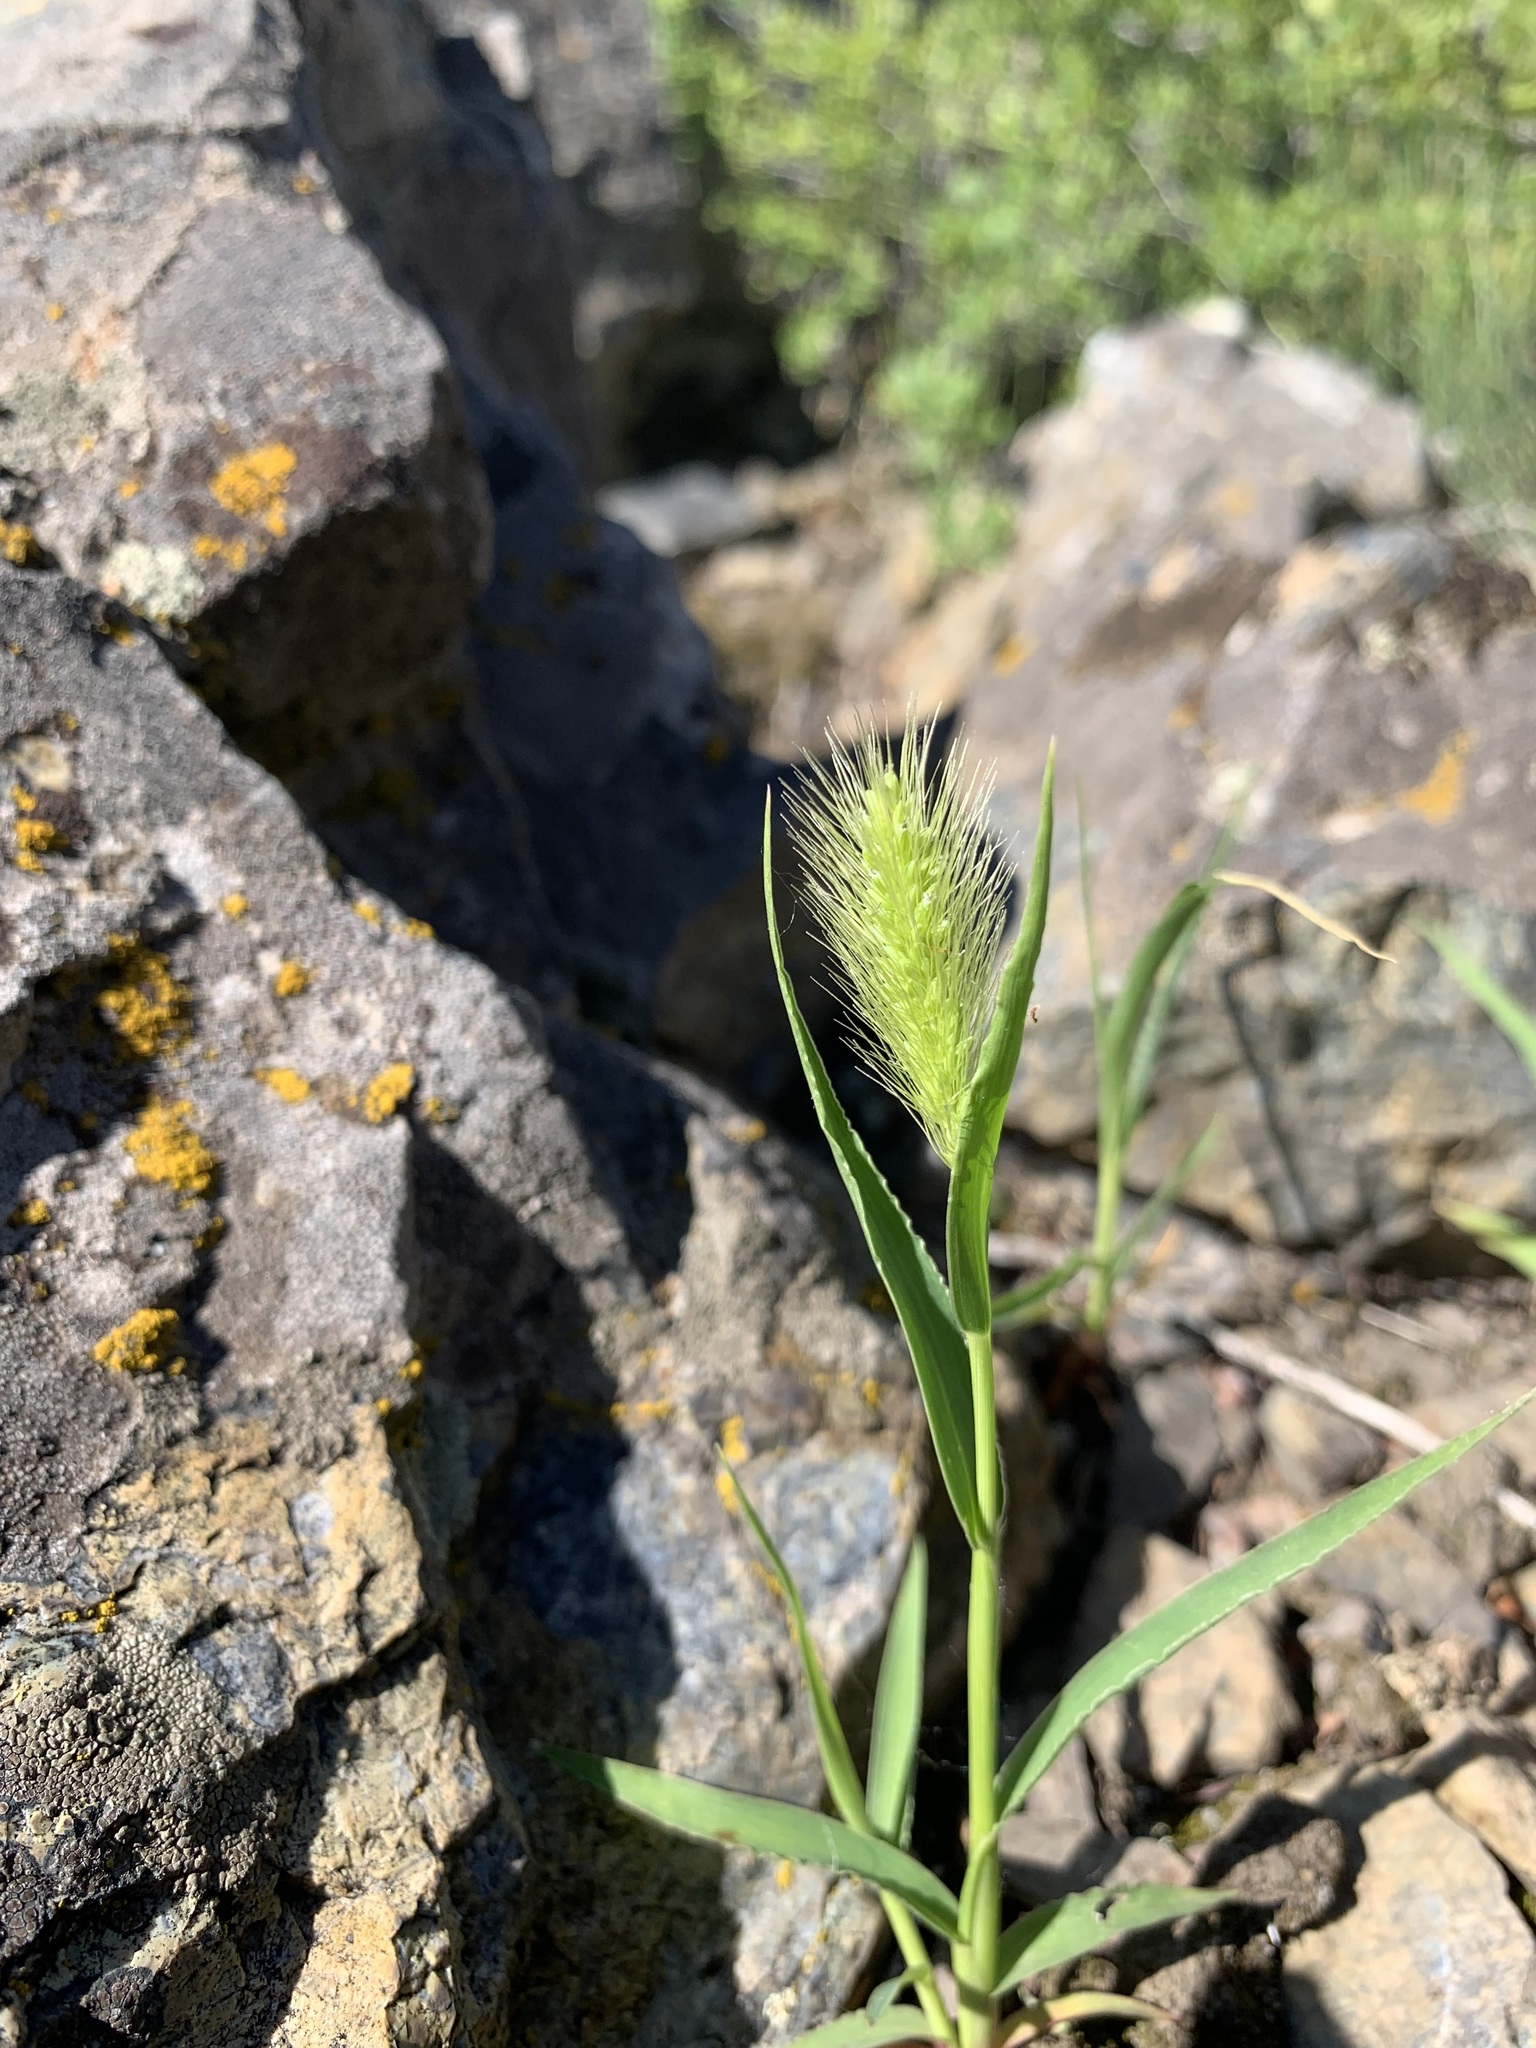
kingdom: Plantae
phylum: Tracheophyta
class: Liliopsida
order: Poales
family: Poaceae
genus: Setaria
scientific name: Setaria viridis
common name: Green bristlegrass
